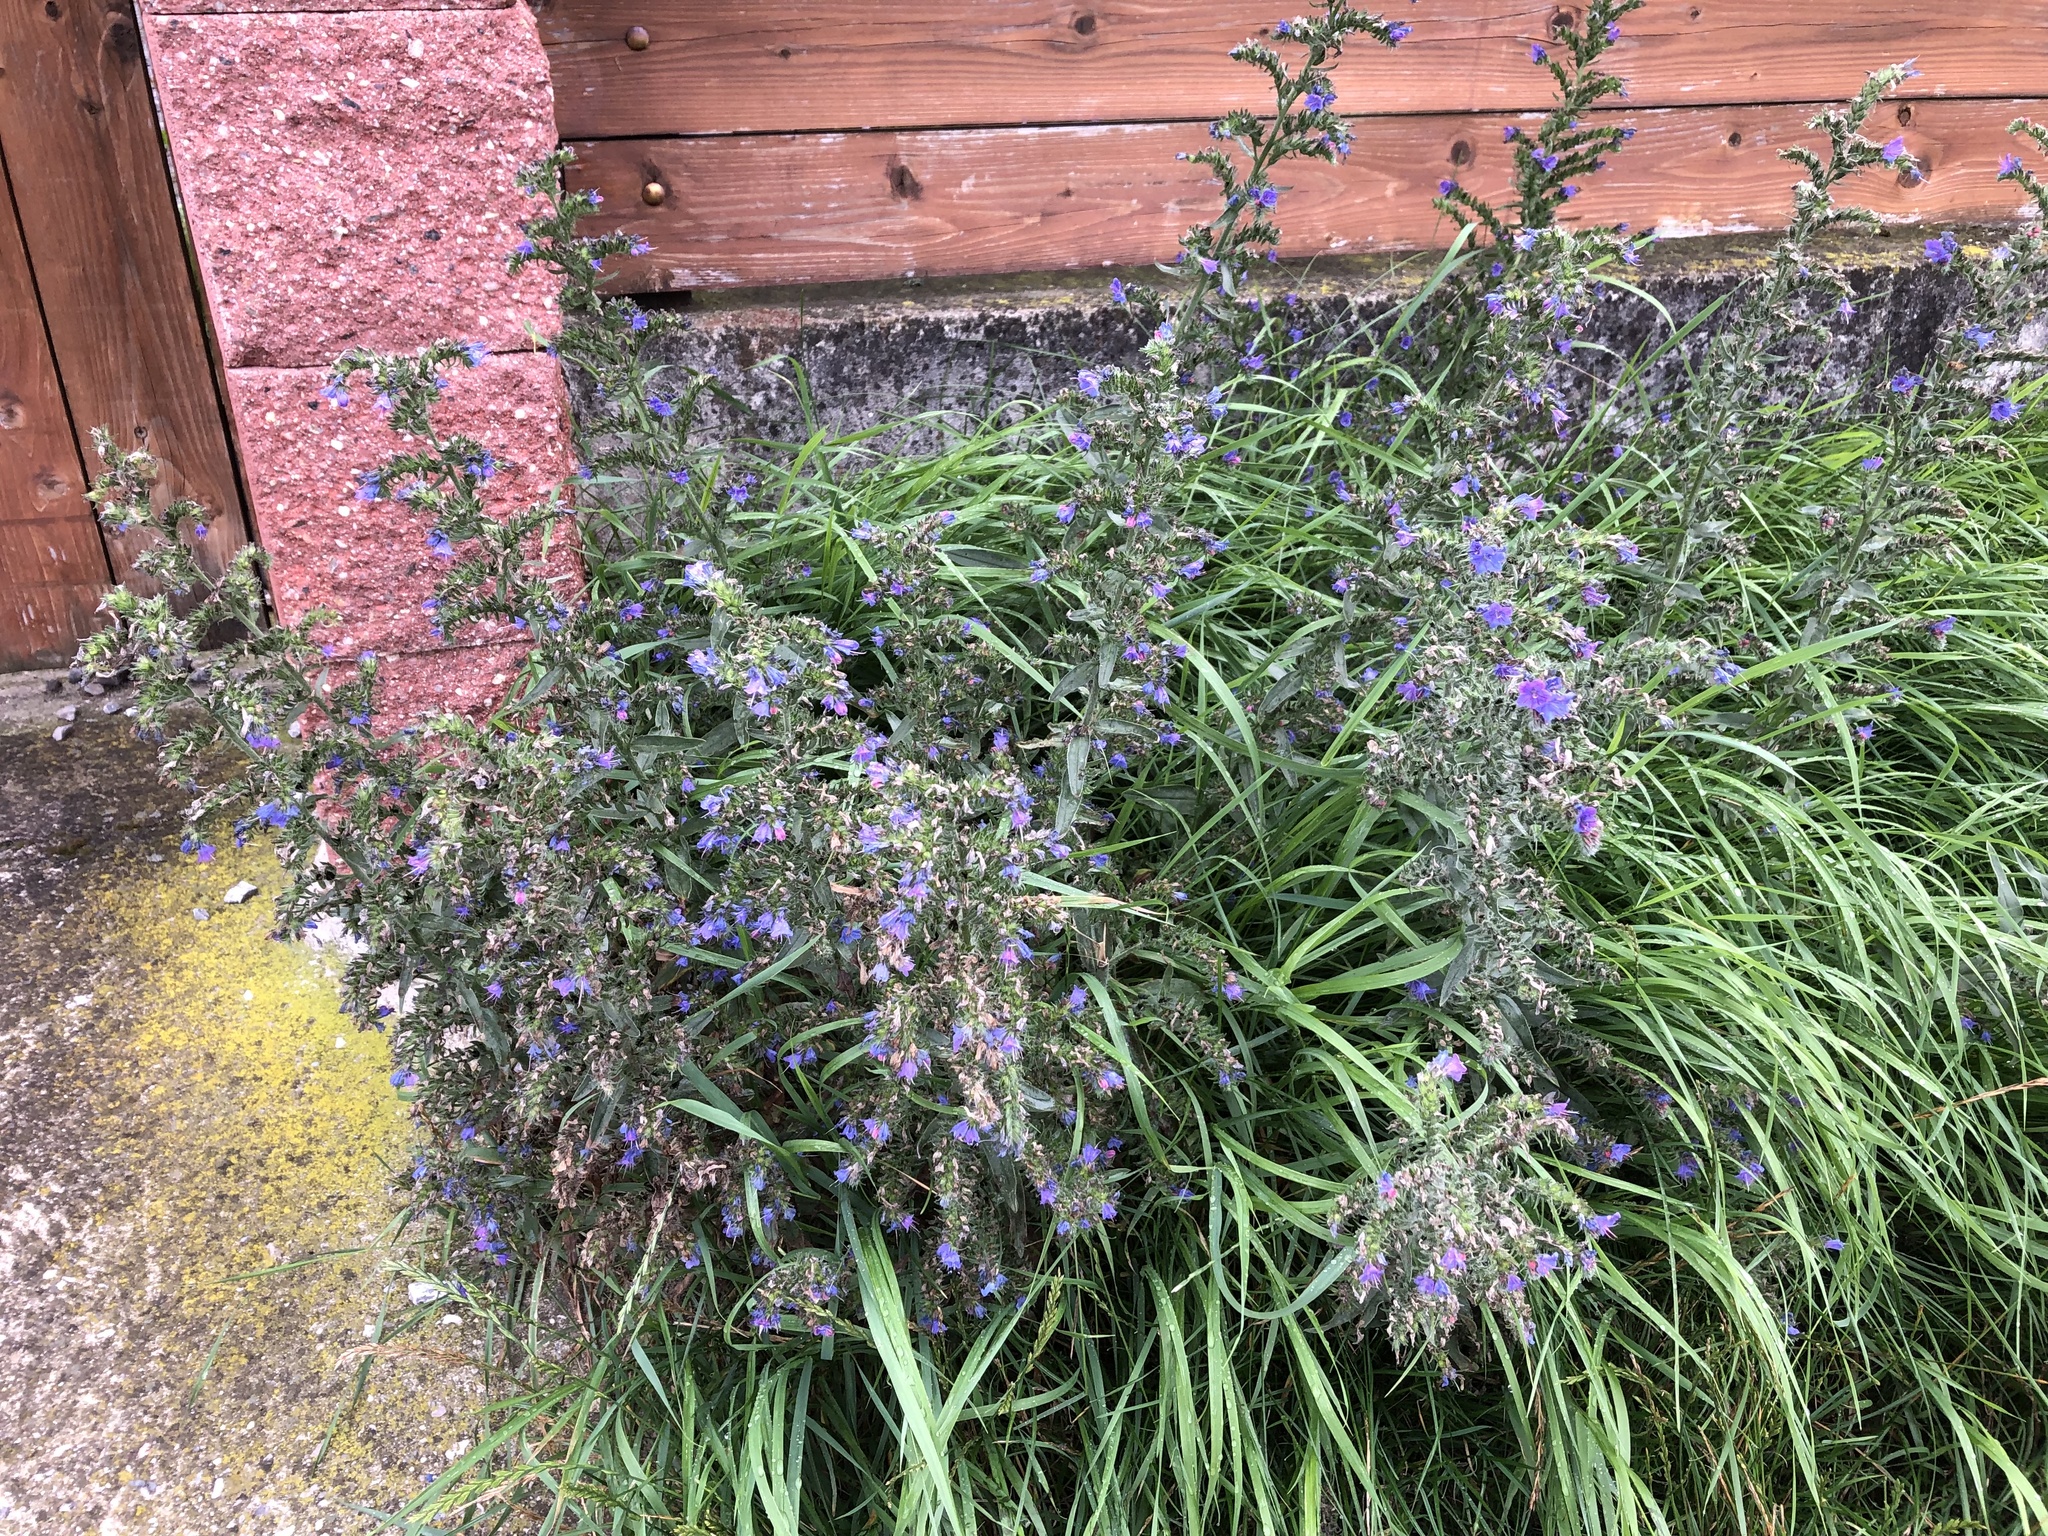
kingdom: Plantae
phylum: Tracheophyta
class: Magnoliopsida
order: Boraginales
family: Boraginaceae
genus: Echium
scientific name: Echium vulgare
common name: Common viper's bugloss
